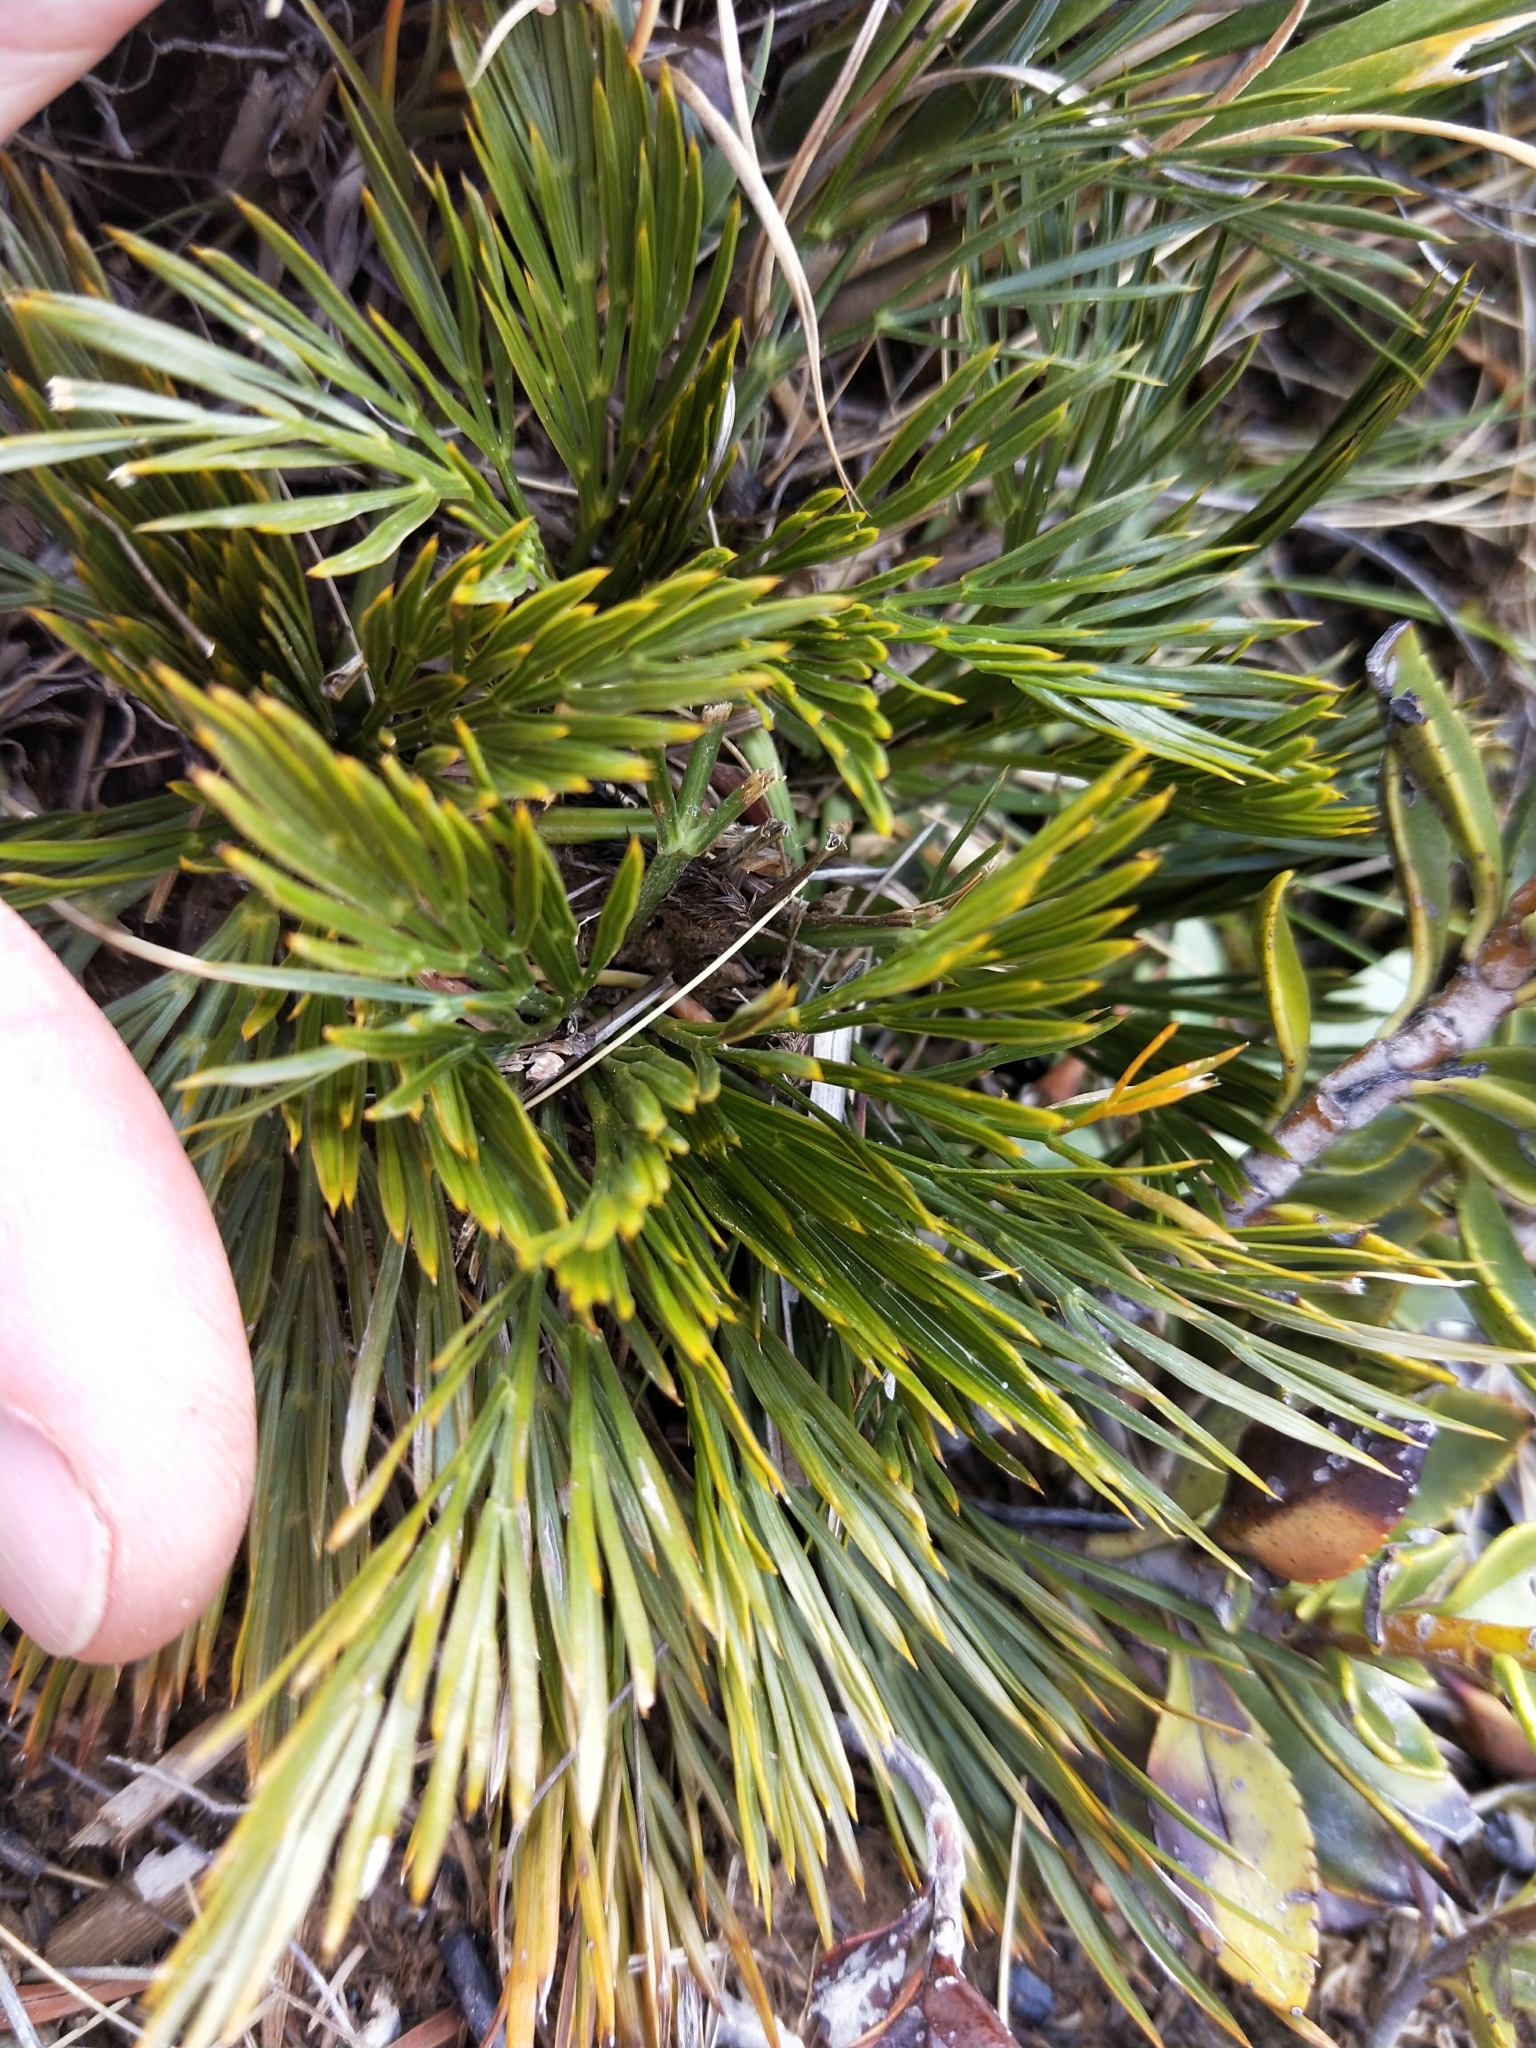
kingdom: Plantae
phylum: Tracheophyta
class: Magnoliopsida
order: Apiales
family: Apiaceae
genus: Aciphylla
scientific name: Aciphylla divisa
